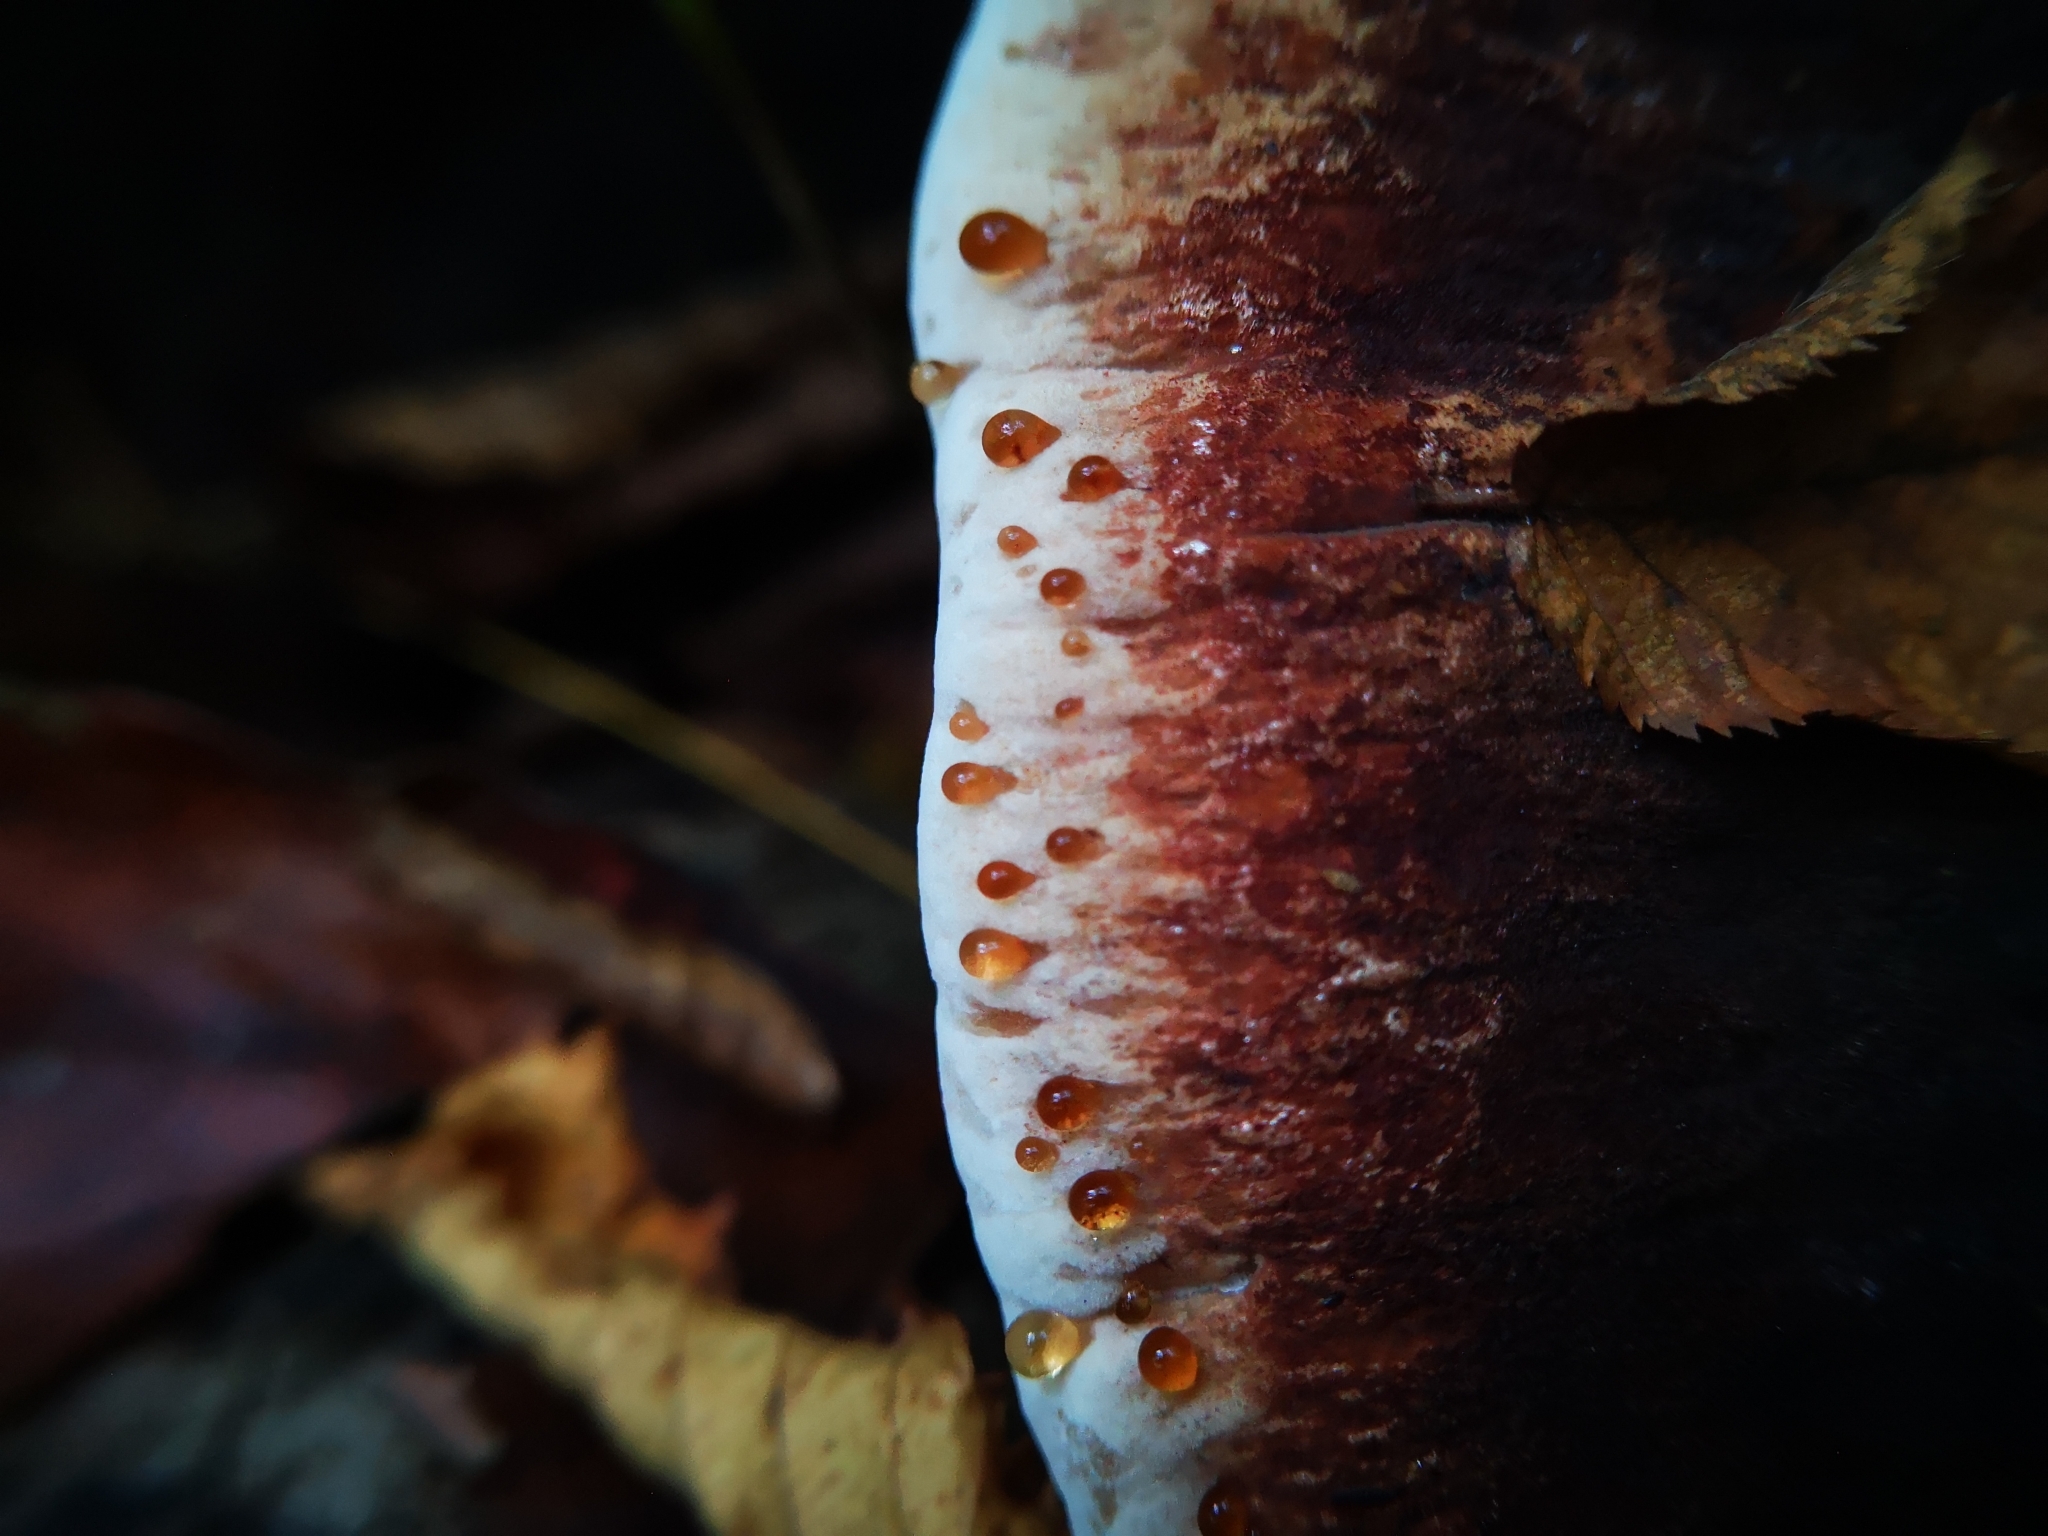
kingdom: Fungi
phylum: Basidiomycota
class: Agaricomycetes
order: Polyporales
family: Ischnodermataceae
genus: Ischnoderma
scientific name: Ischnoderma resinosum
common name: Resinous polypore
